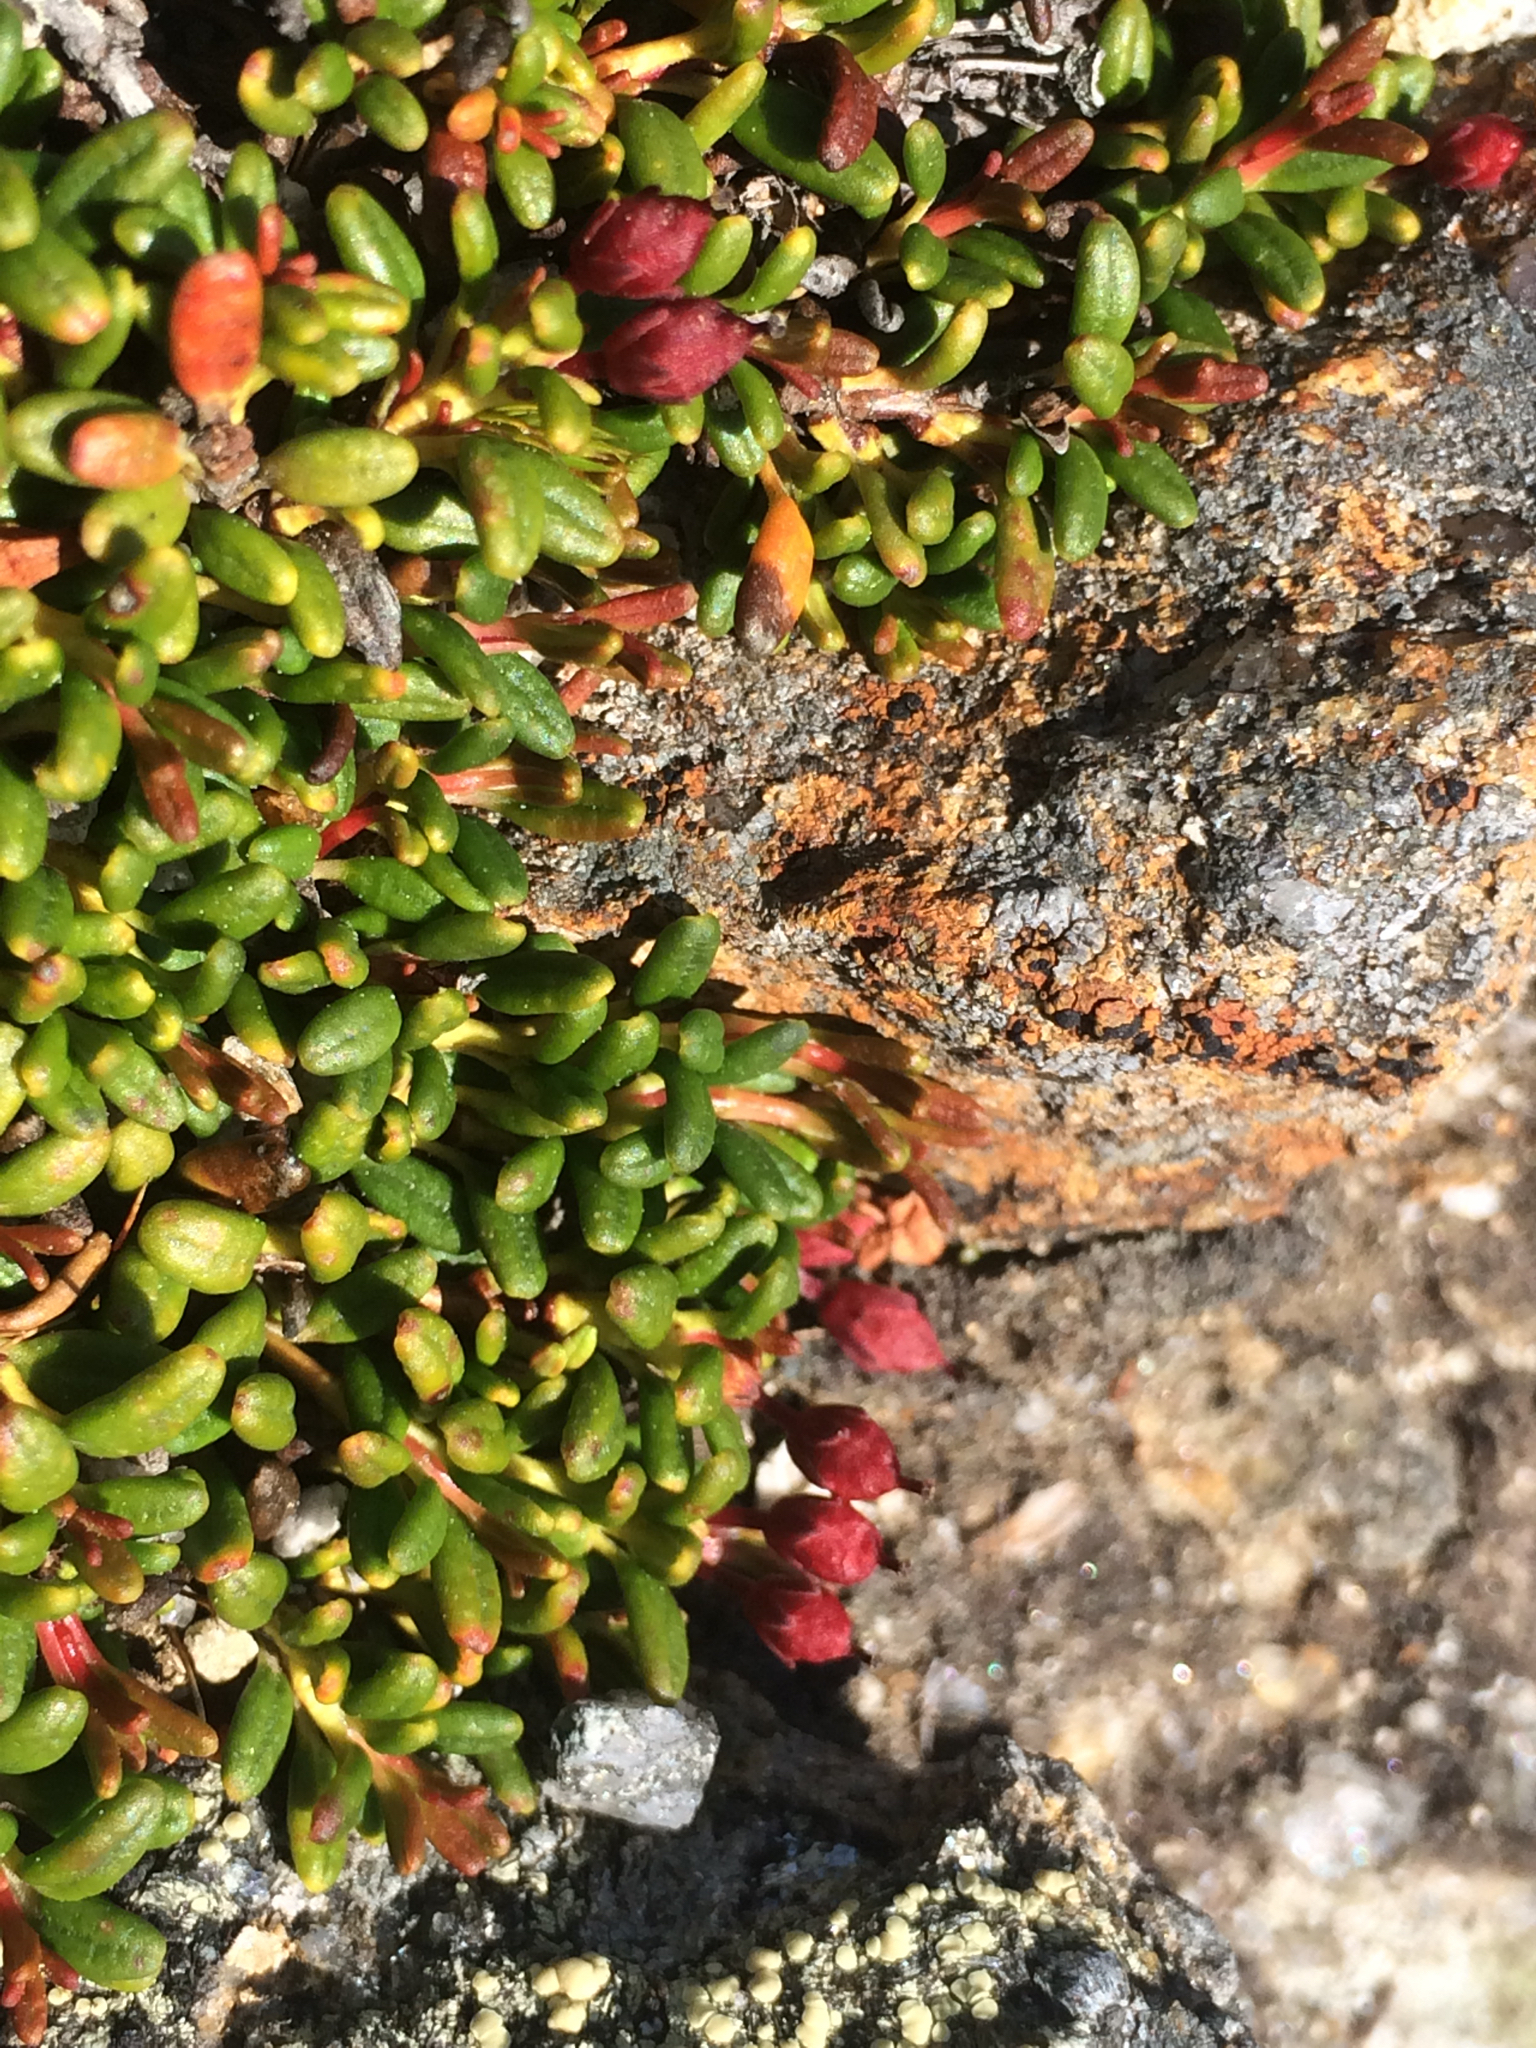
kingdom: Plantae
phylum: Tracheophyta
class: Magnoliopsida
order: Ericales
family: Ericaceae
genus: Kalmia
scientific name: Kalmia procumbens
